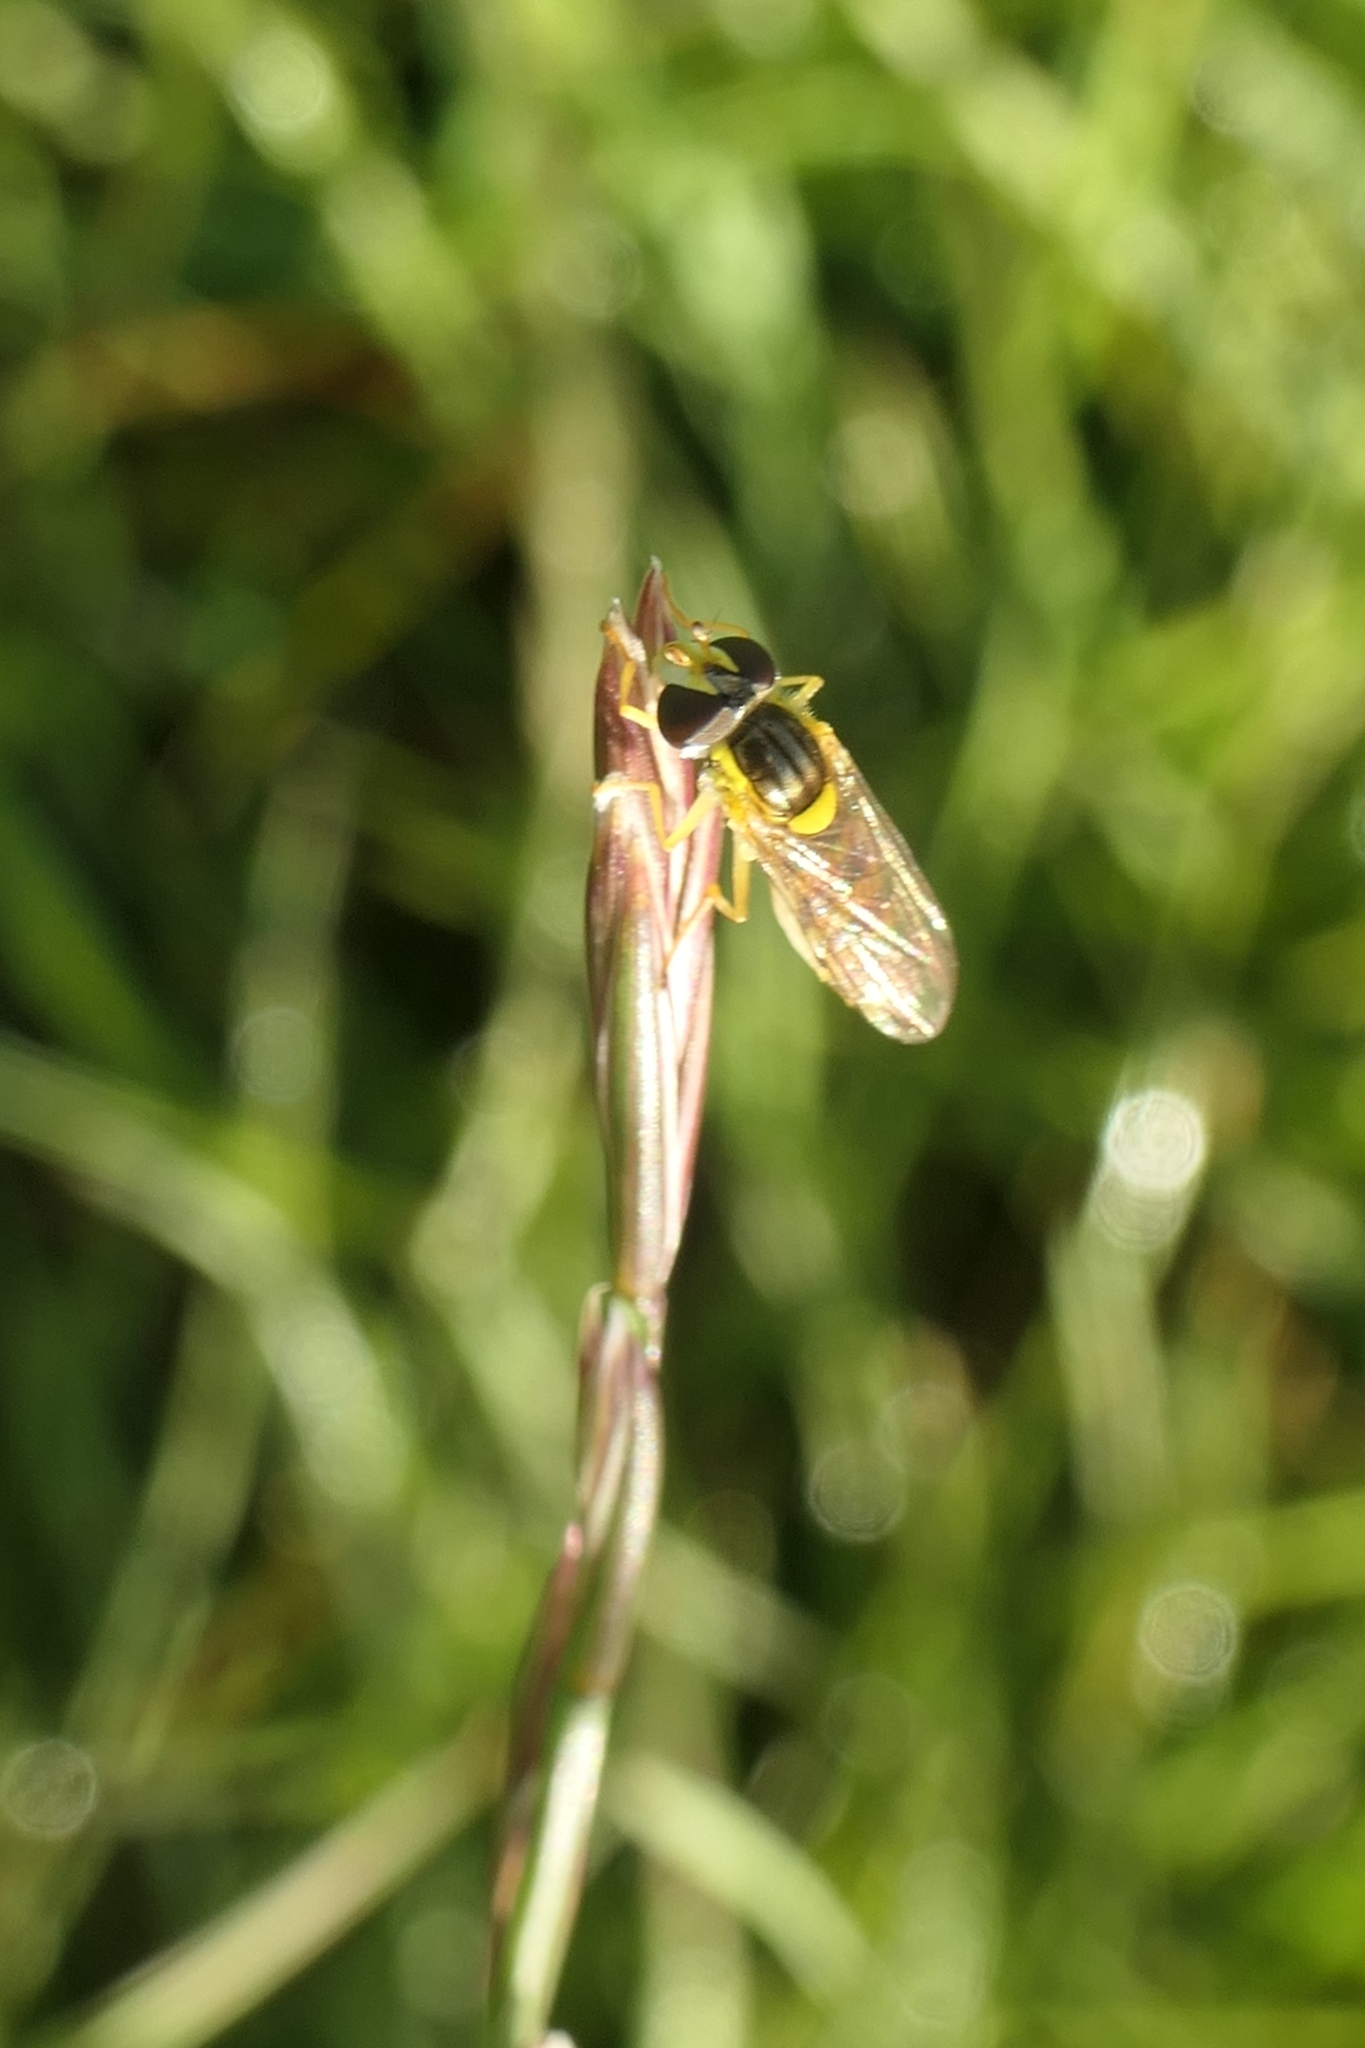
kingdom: Animalia
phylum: Arthropoda
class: Insecta
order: Diptera
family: Syrphidae
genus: Sphaerophoria
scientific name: Sphaerophoria macrogaster
